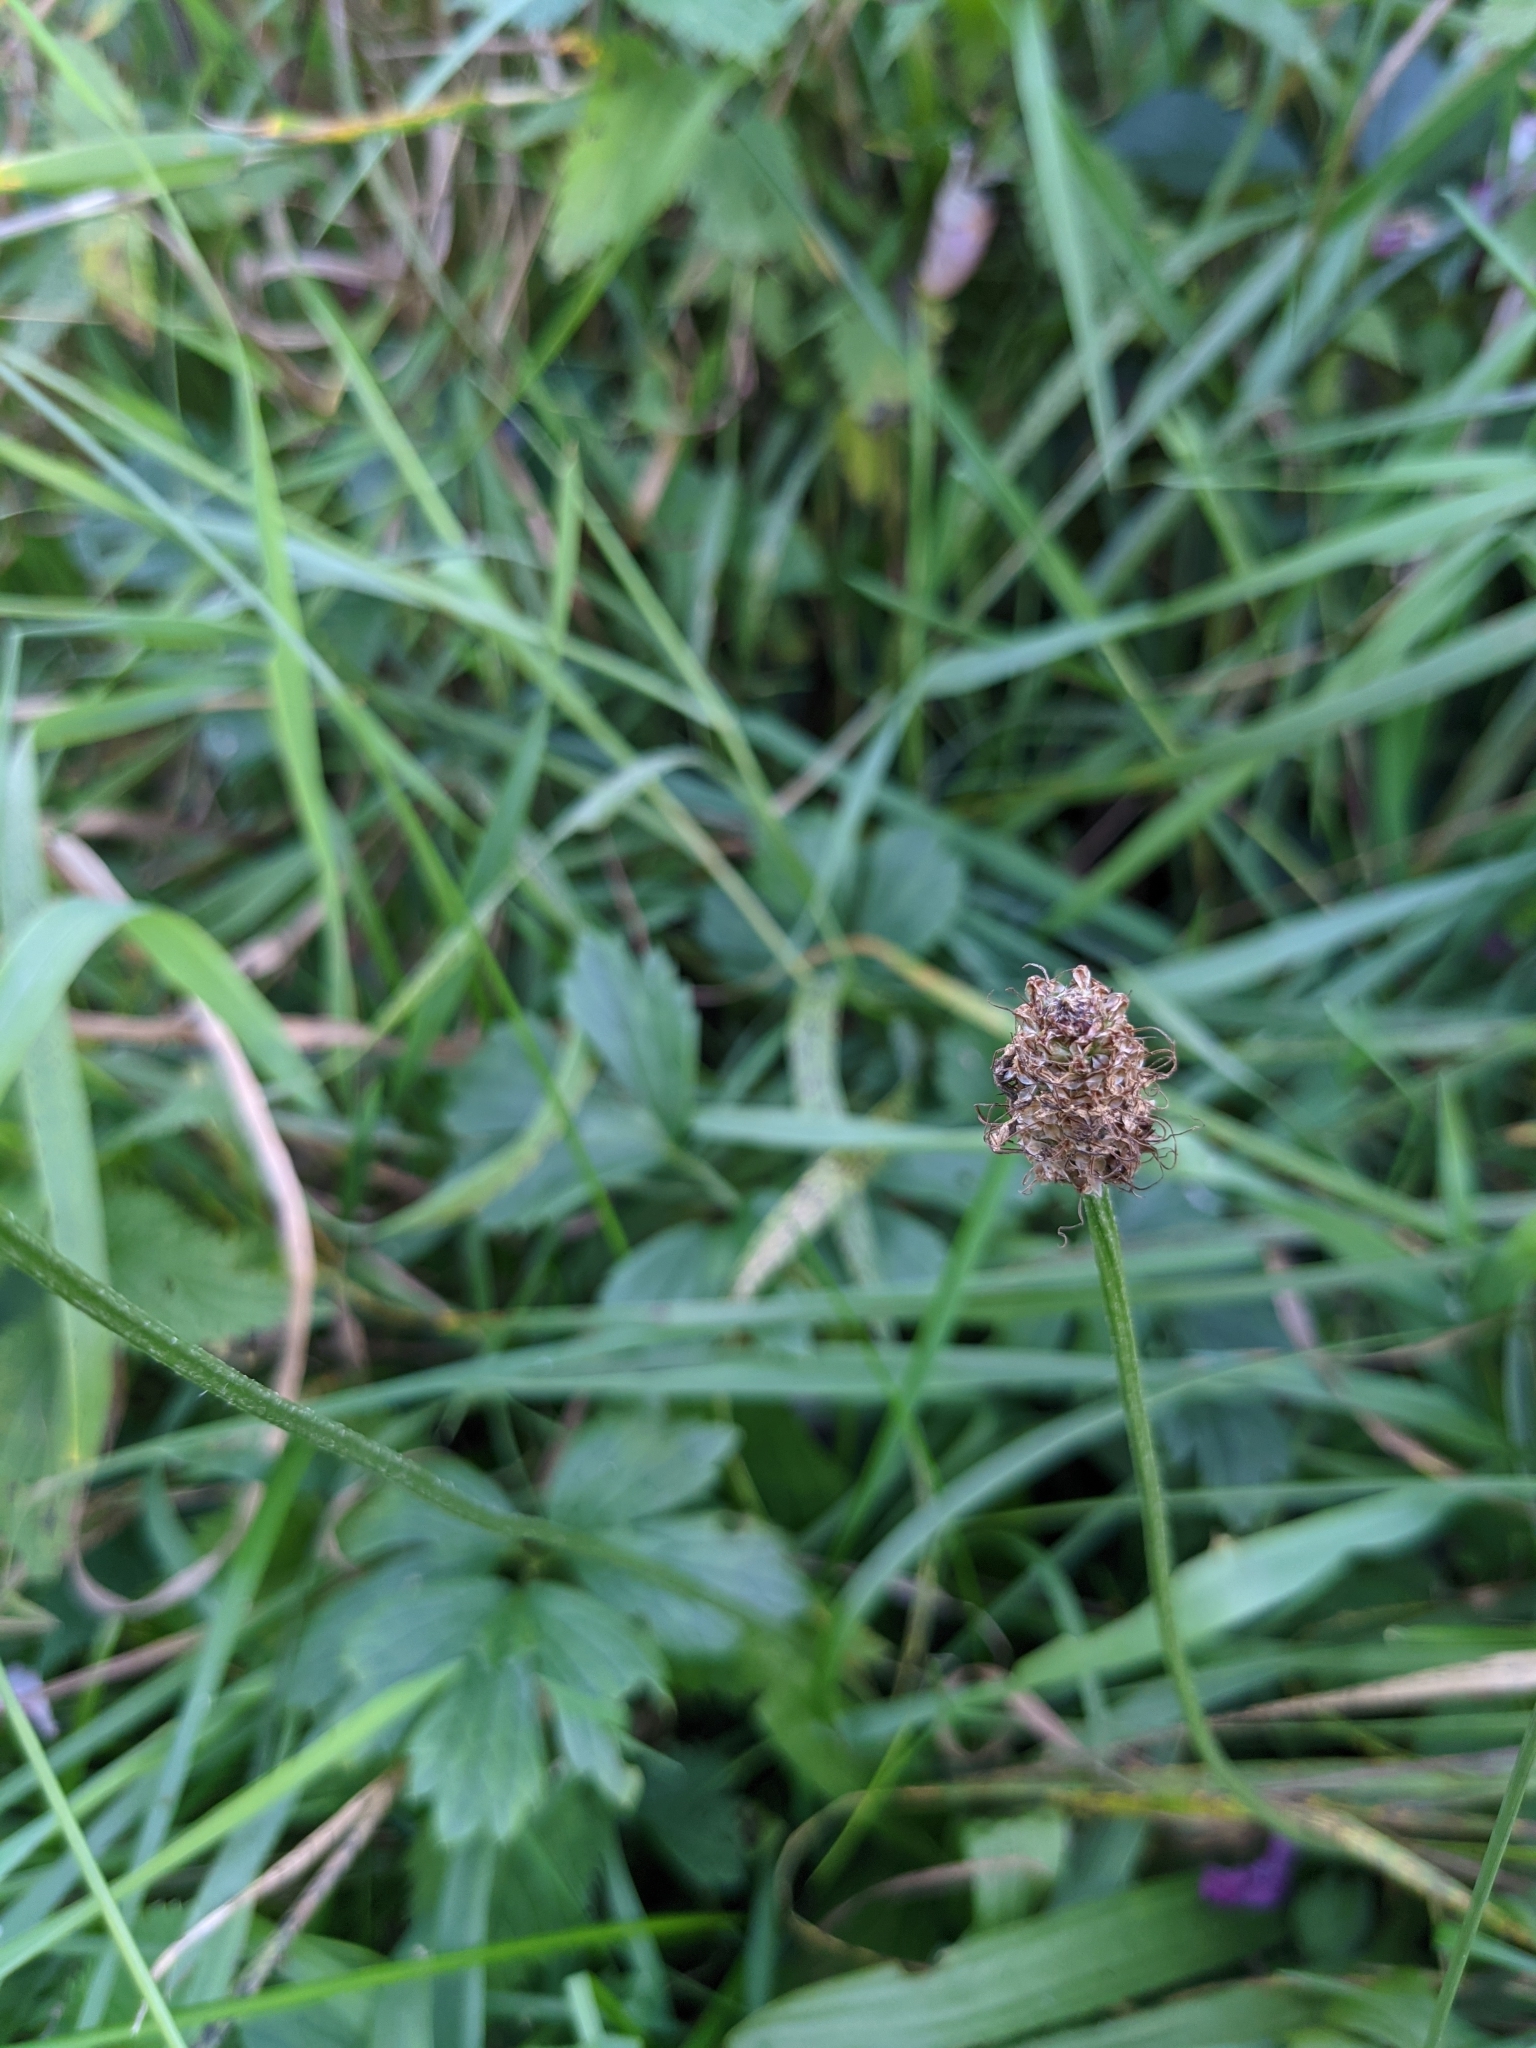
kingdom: Plantae
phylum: Tracheophyta
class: Magnoliopsida
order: Lamiales
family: Plantaginaceae
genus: Plantago
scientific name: Plantago lanceolata
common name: Ribwort plantain
